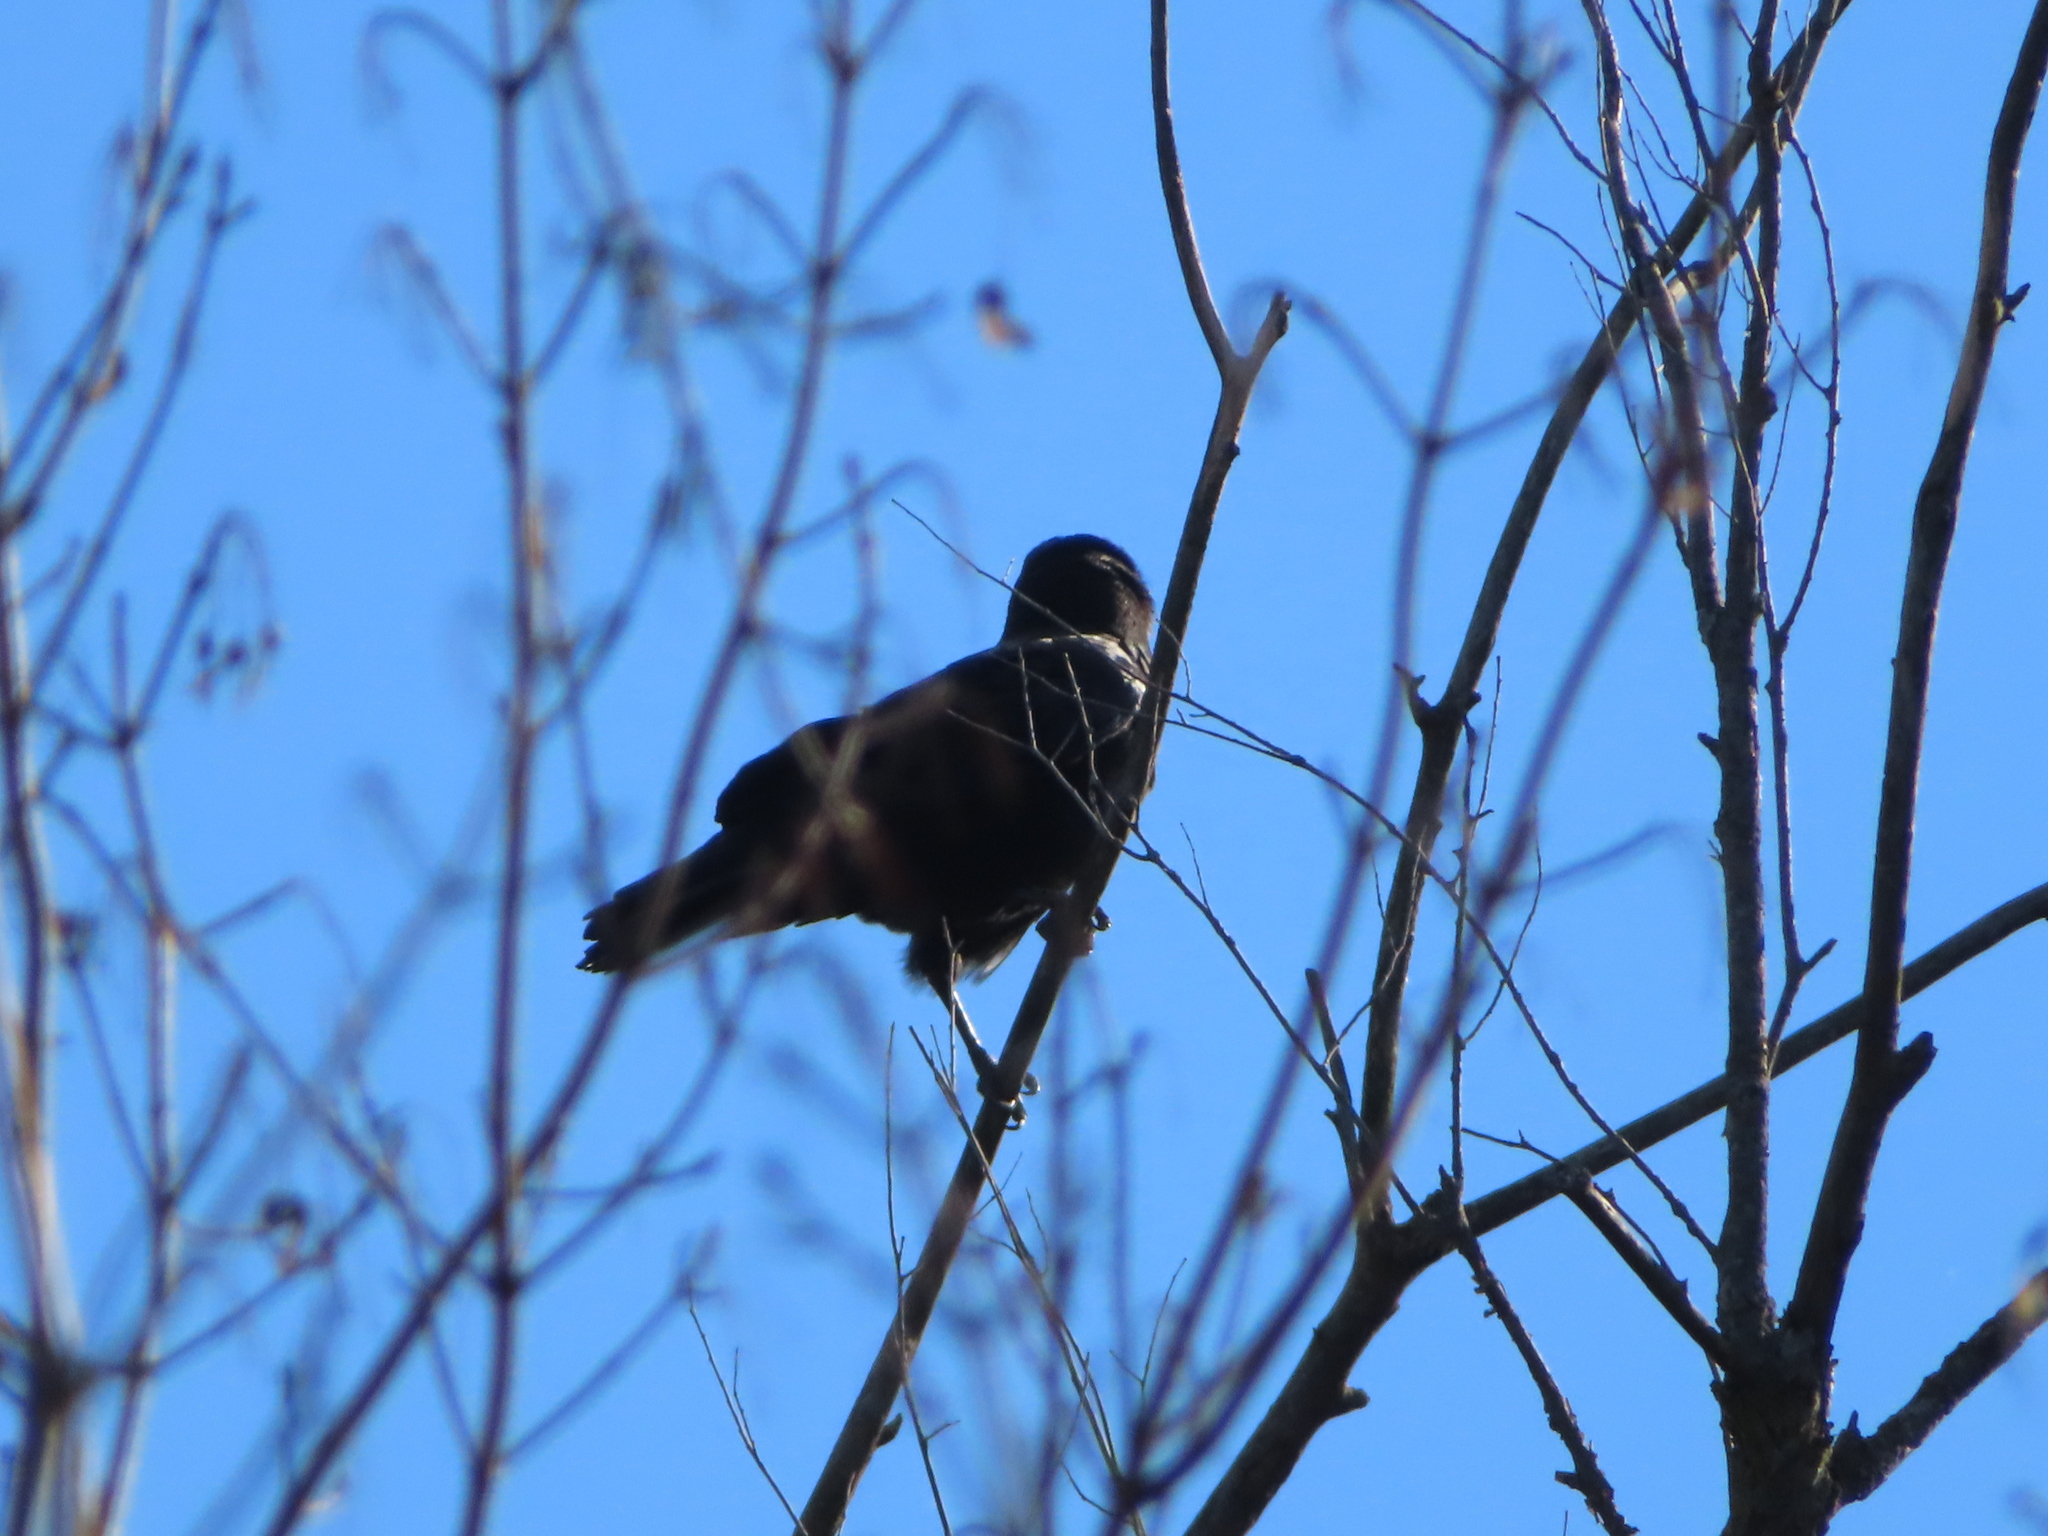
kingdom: Animalia
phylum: Chordata
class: Aves
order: Passeriformes
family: Corvidae
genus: Corvus
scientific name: Corvus brachyrhynchos
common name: American crow
